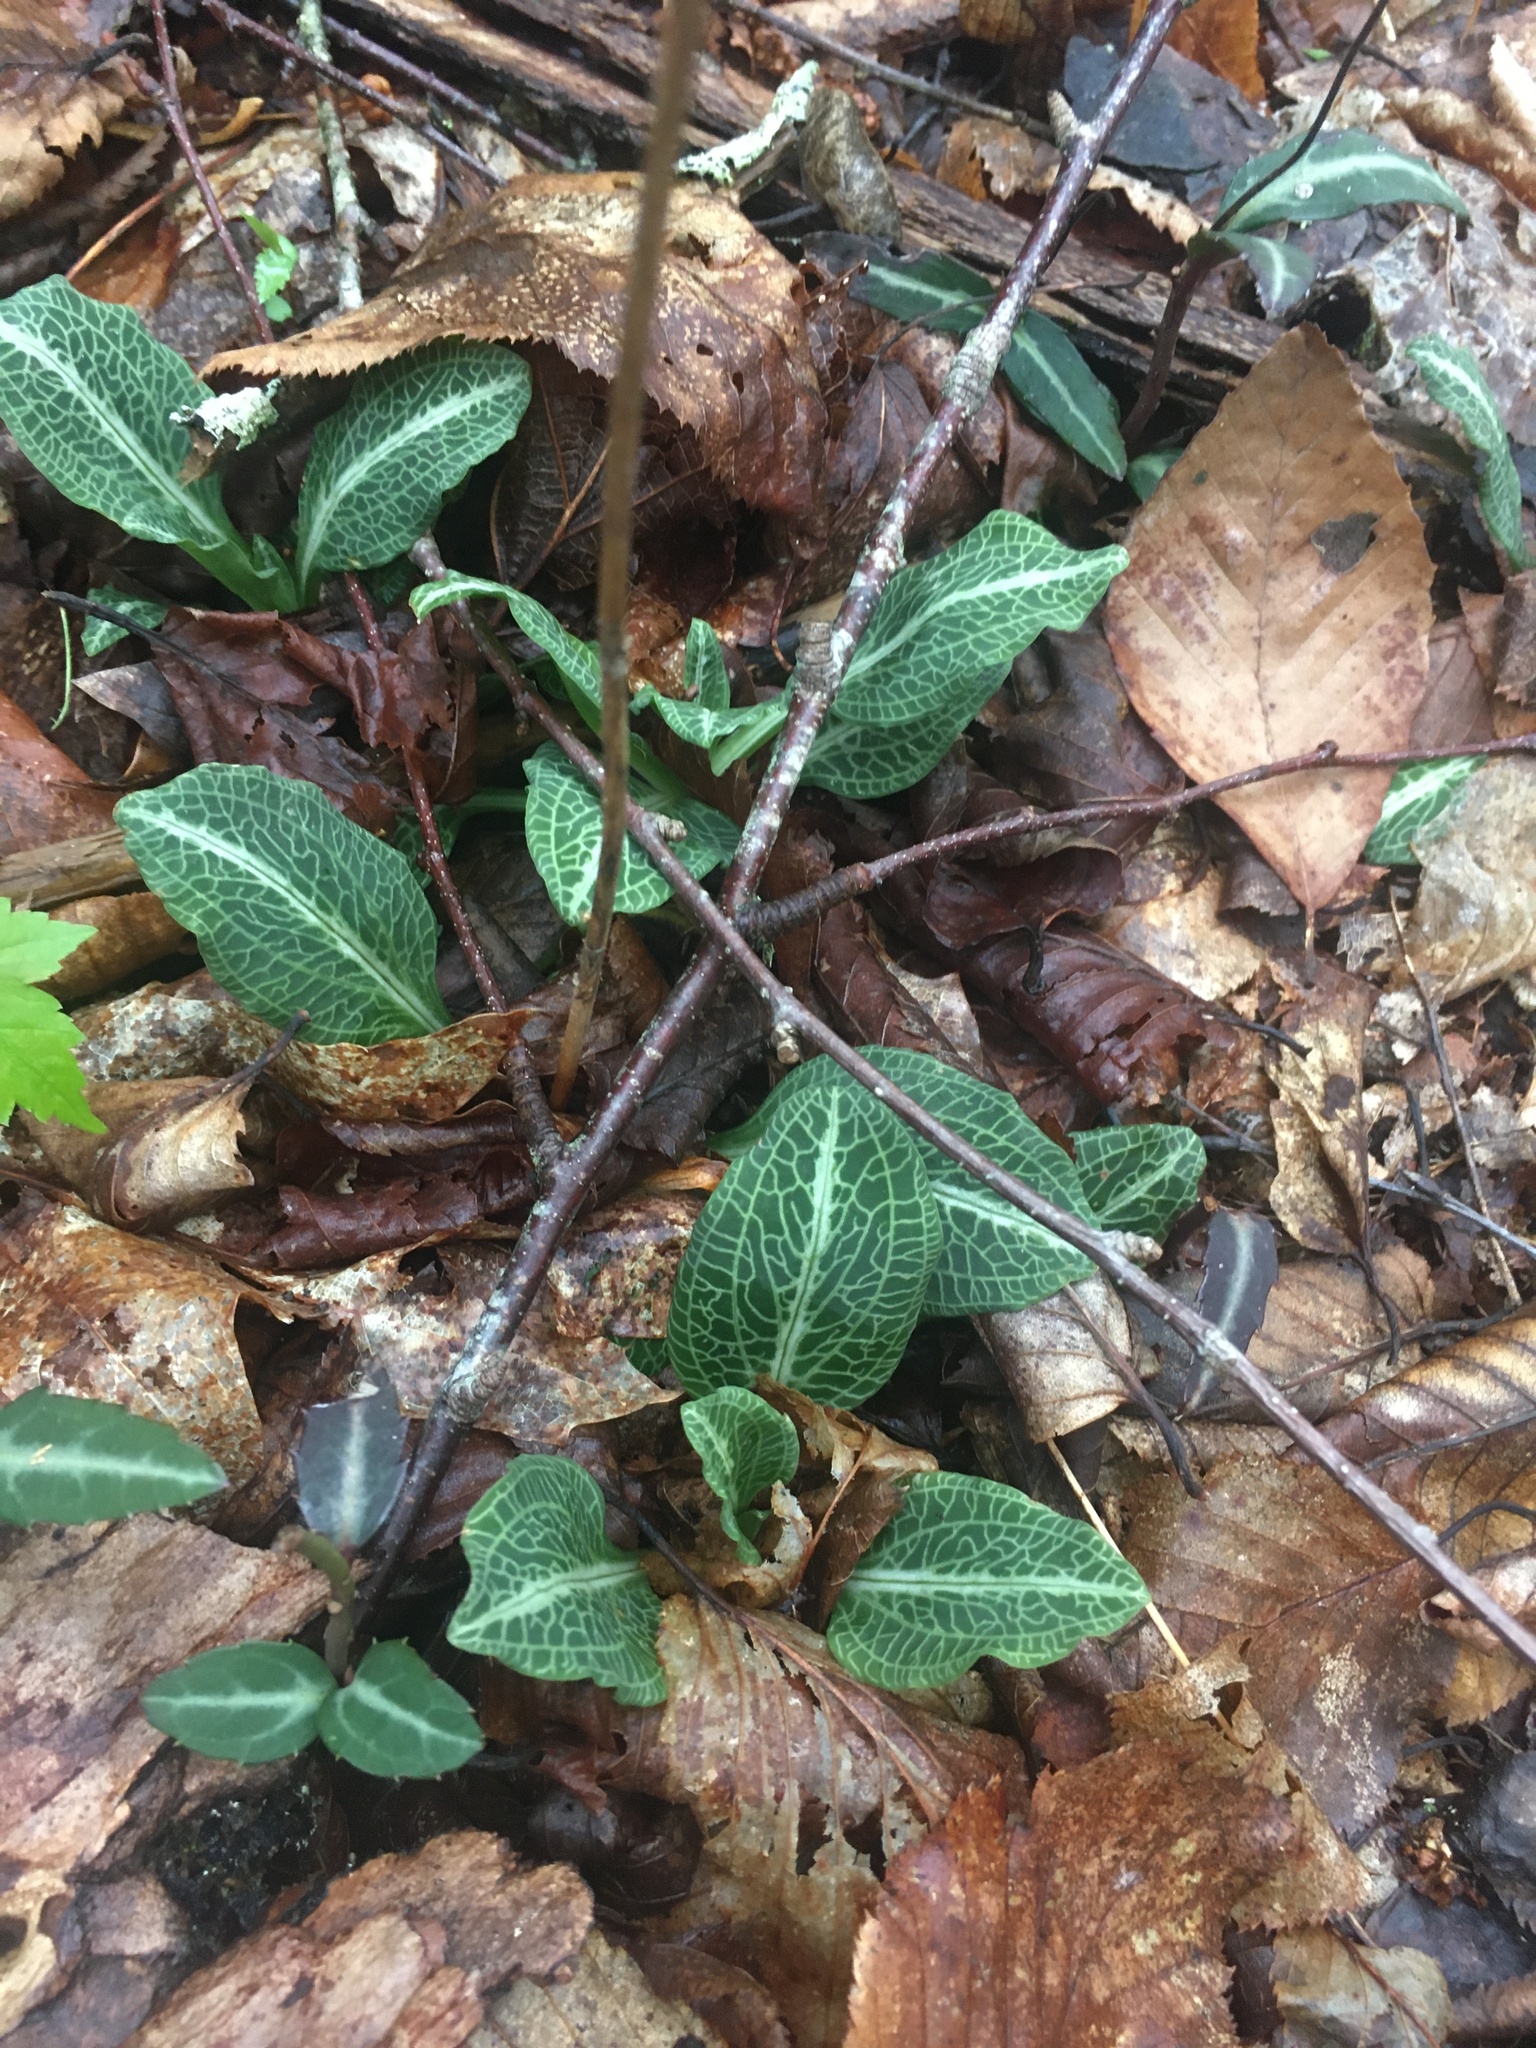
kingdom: Plantae
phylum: Tracheophyta
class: Liliopsida
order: Asparagales
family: Orchidaceae
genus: Goodyera
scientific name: Goodyera pubescens
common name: Downy rattlesnake-plantain
